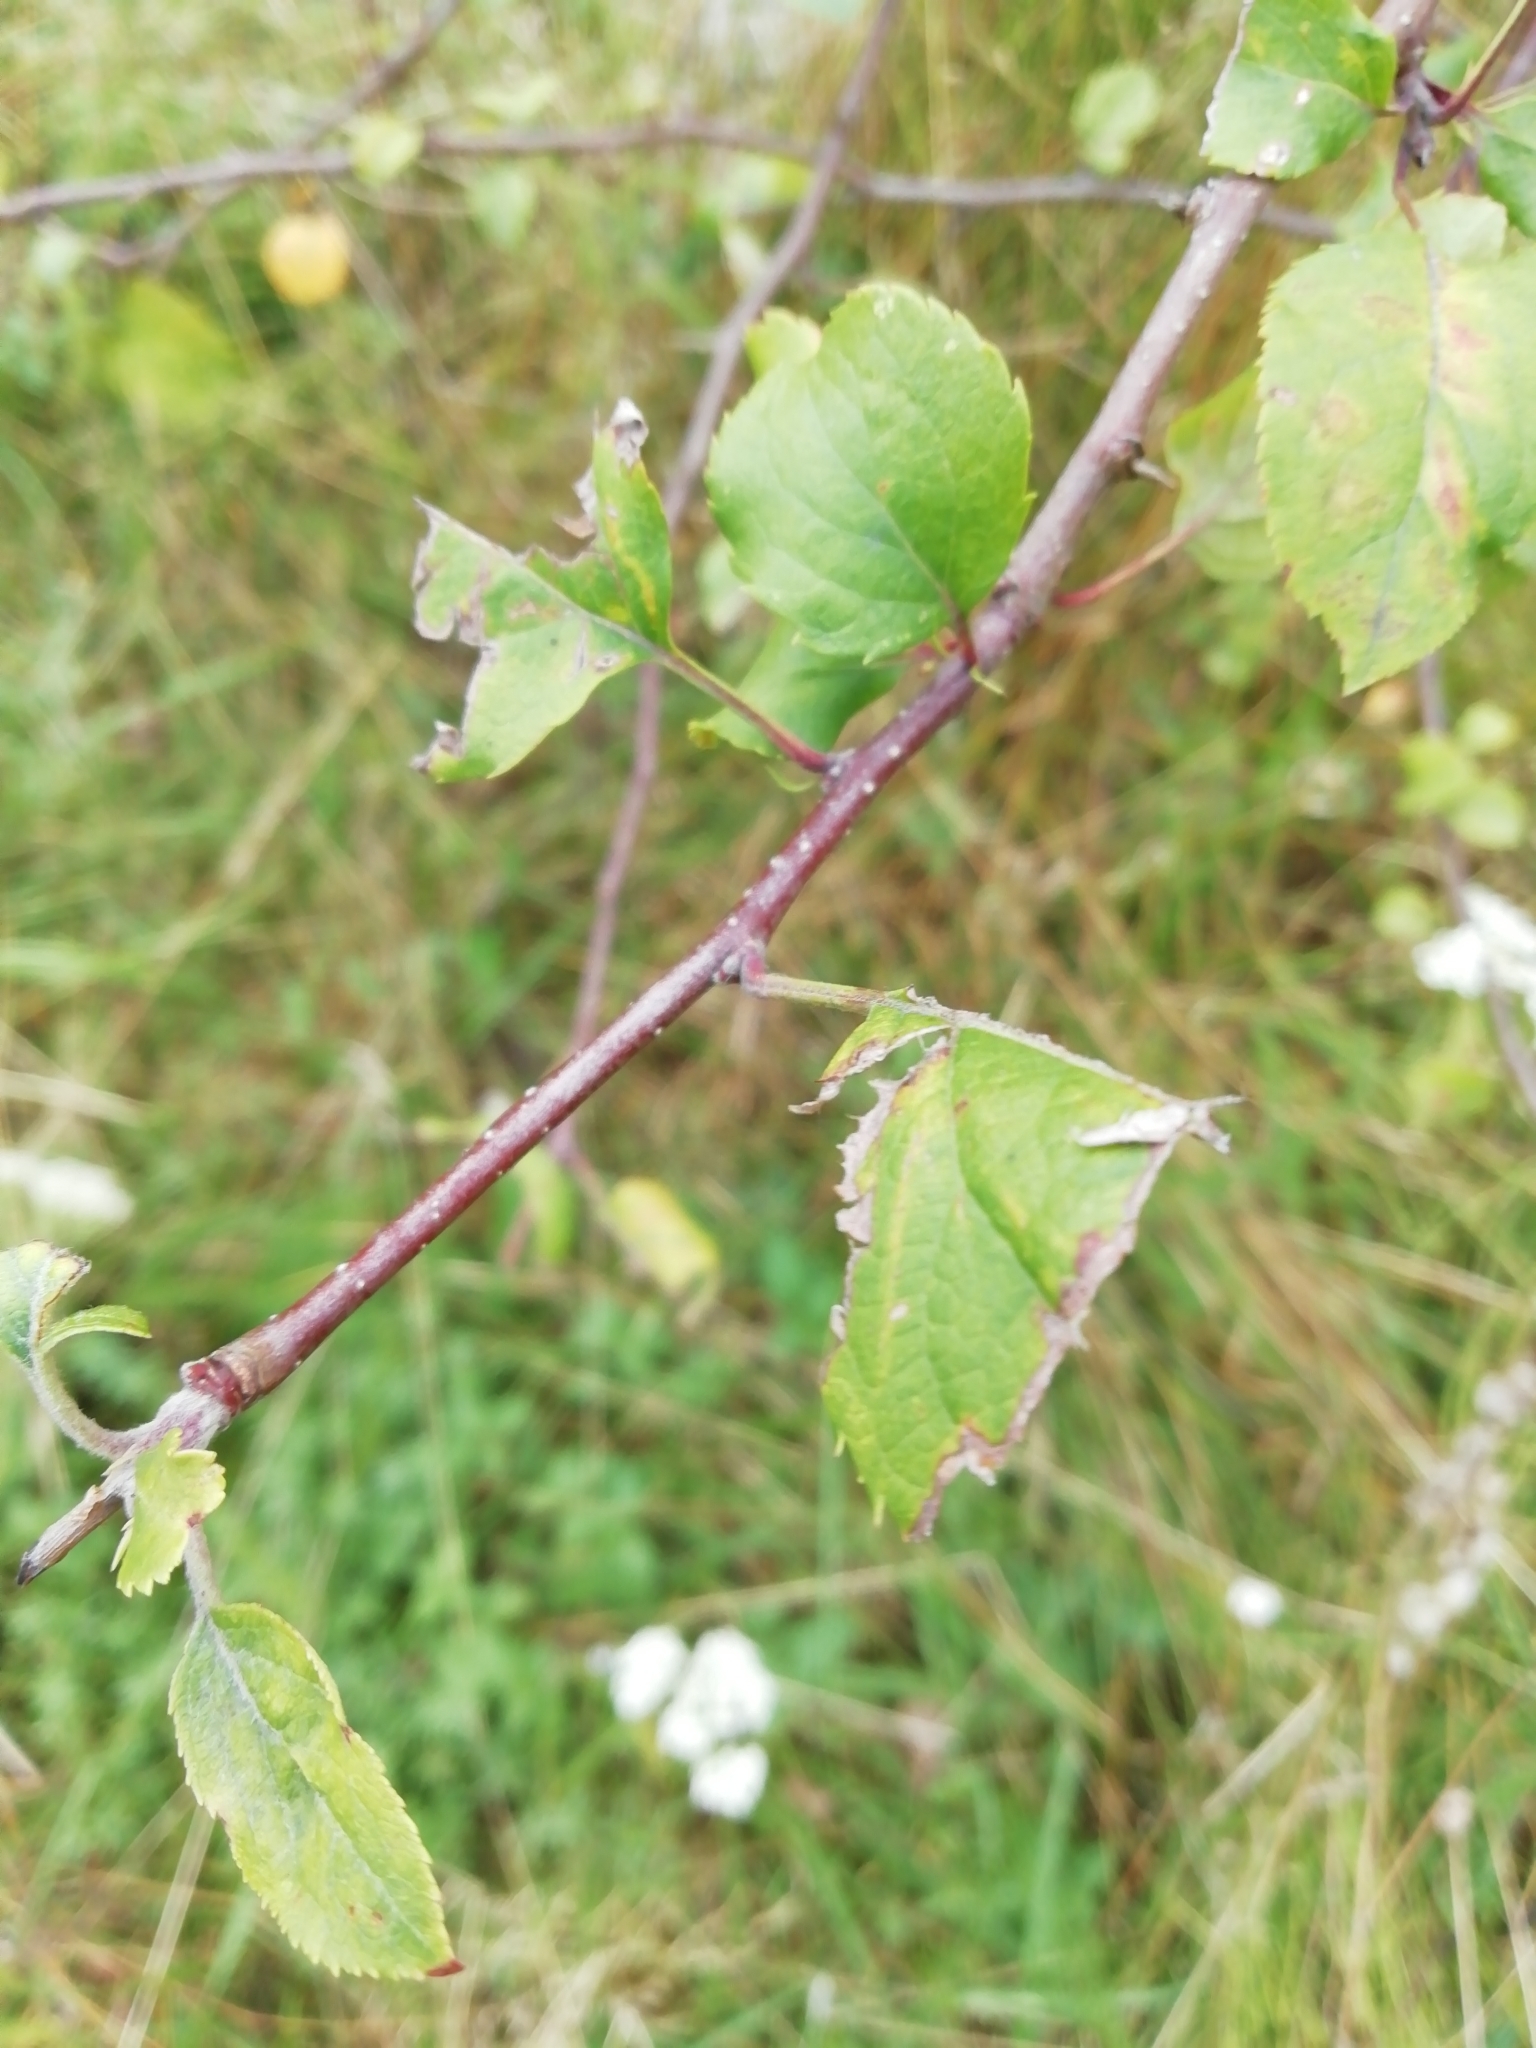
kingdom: Plantae
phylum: Tracheophyta
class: Magnoliopsida
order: Rosales
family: Rosaceae
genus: Malus
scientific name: Malus baccata
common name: Siberian crab
